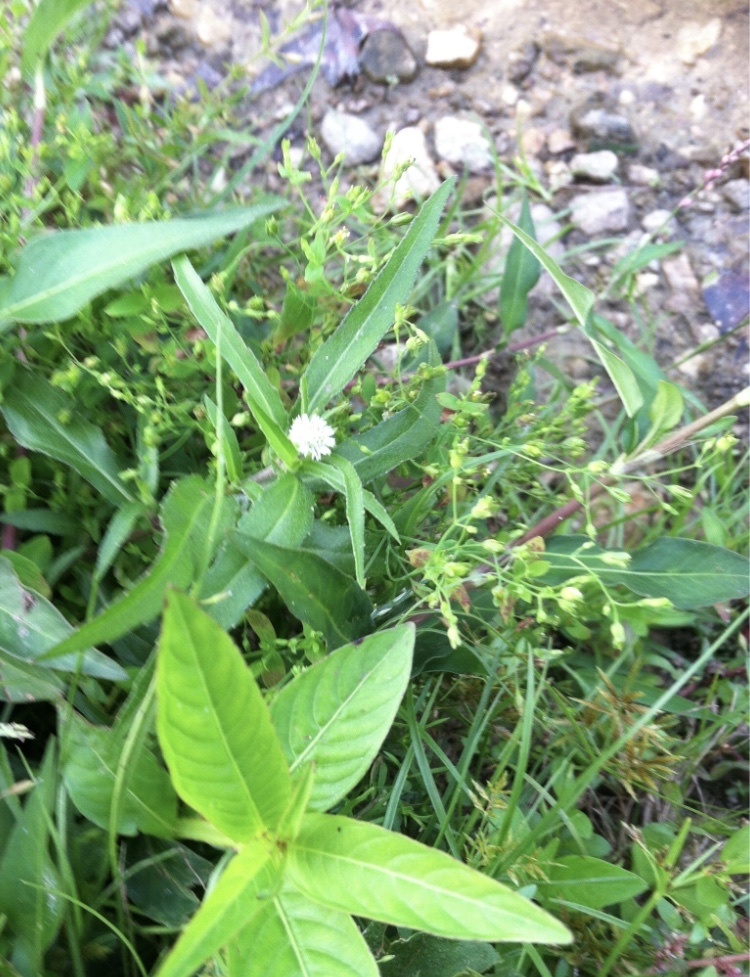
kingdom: Plantae
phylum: Tracheophyta
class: Magnoliopsida
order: Asterales
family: Asteraceae
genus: Eclipta
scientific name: Eclipta prostrata
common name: False daisy
